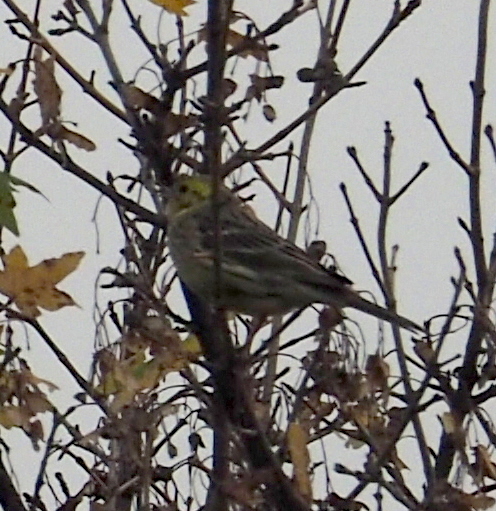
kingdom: Animalia
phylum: Chordata
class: Aves
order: Passeriformes
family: Emberizidae
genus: Emberiza
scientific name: Emberiza citrinella
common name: Yellowhammer
